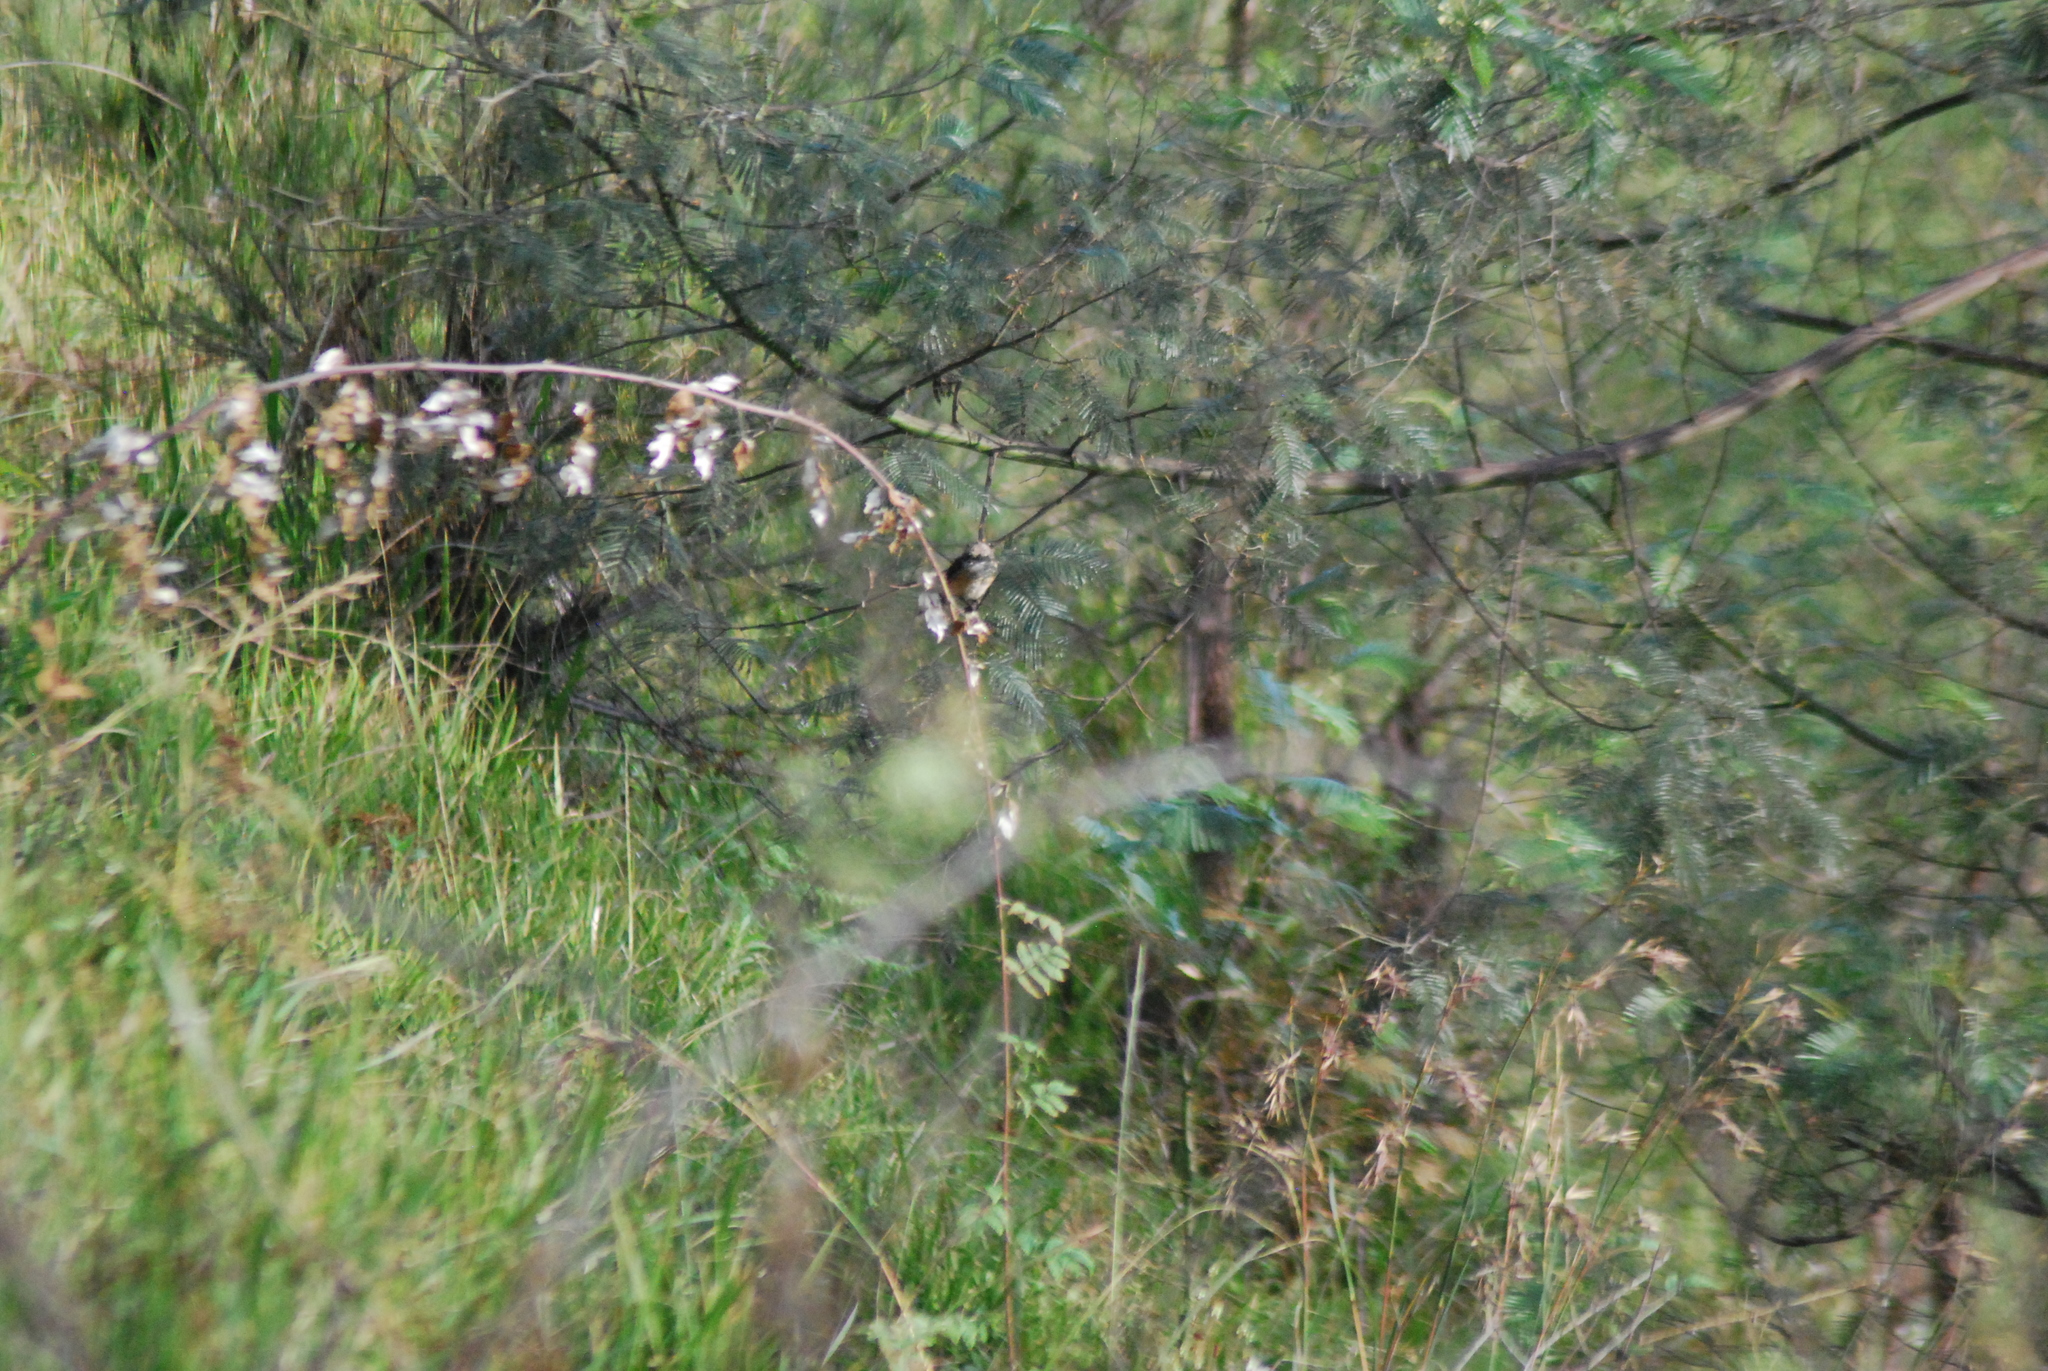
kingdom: Animalia
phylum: Chordata
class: Aves
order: Passeriformes
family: Laniidae
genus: Lanius
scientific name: Lanius schach
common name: Long-tailed shrike
